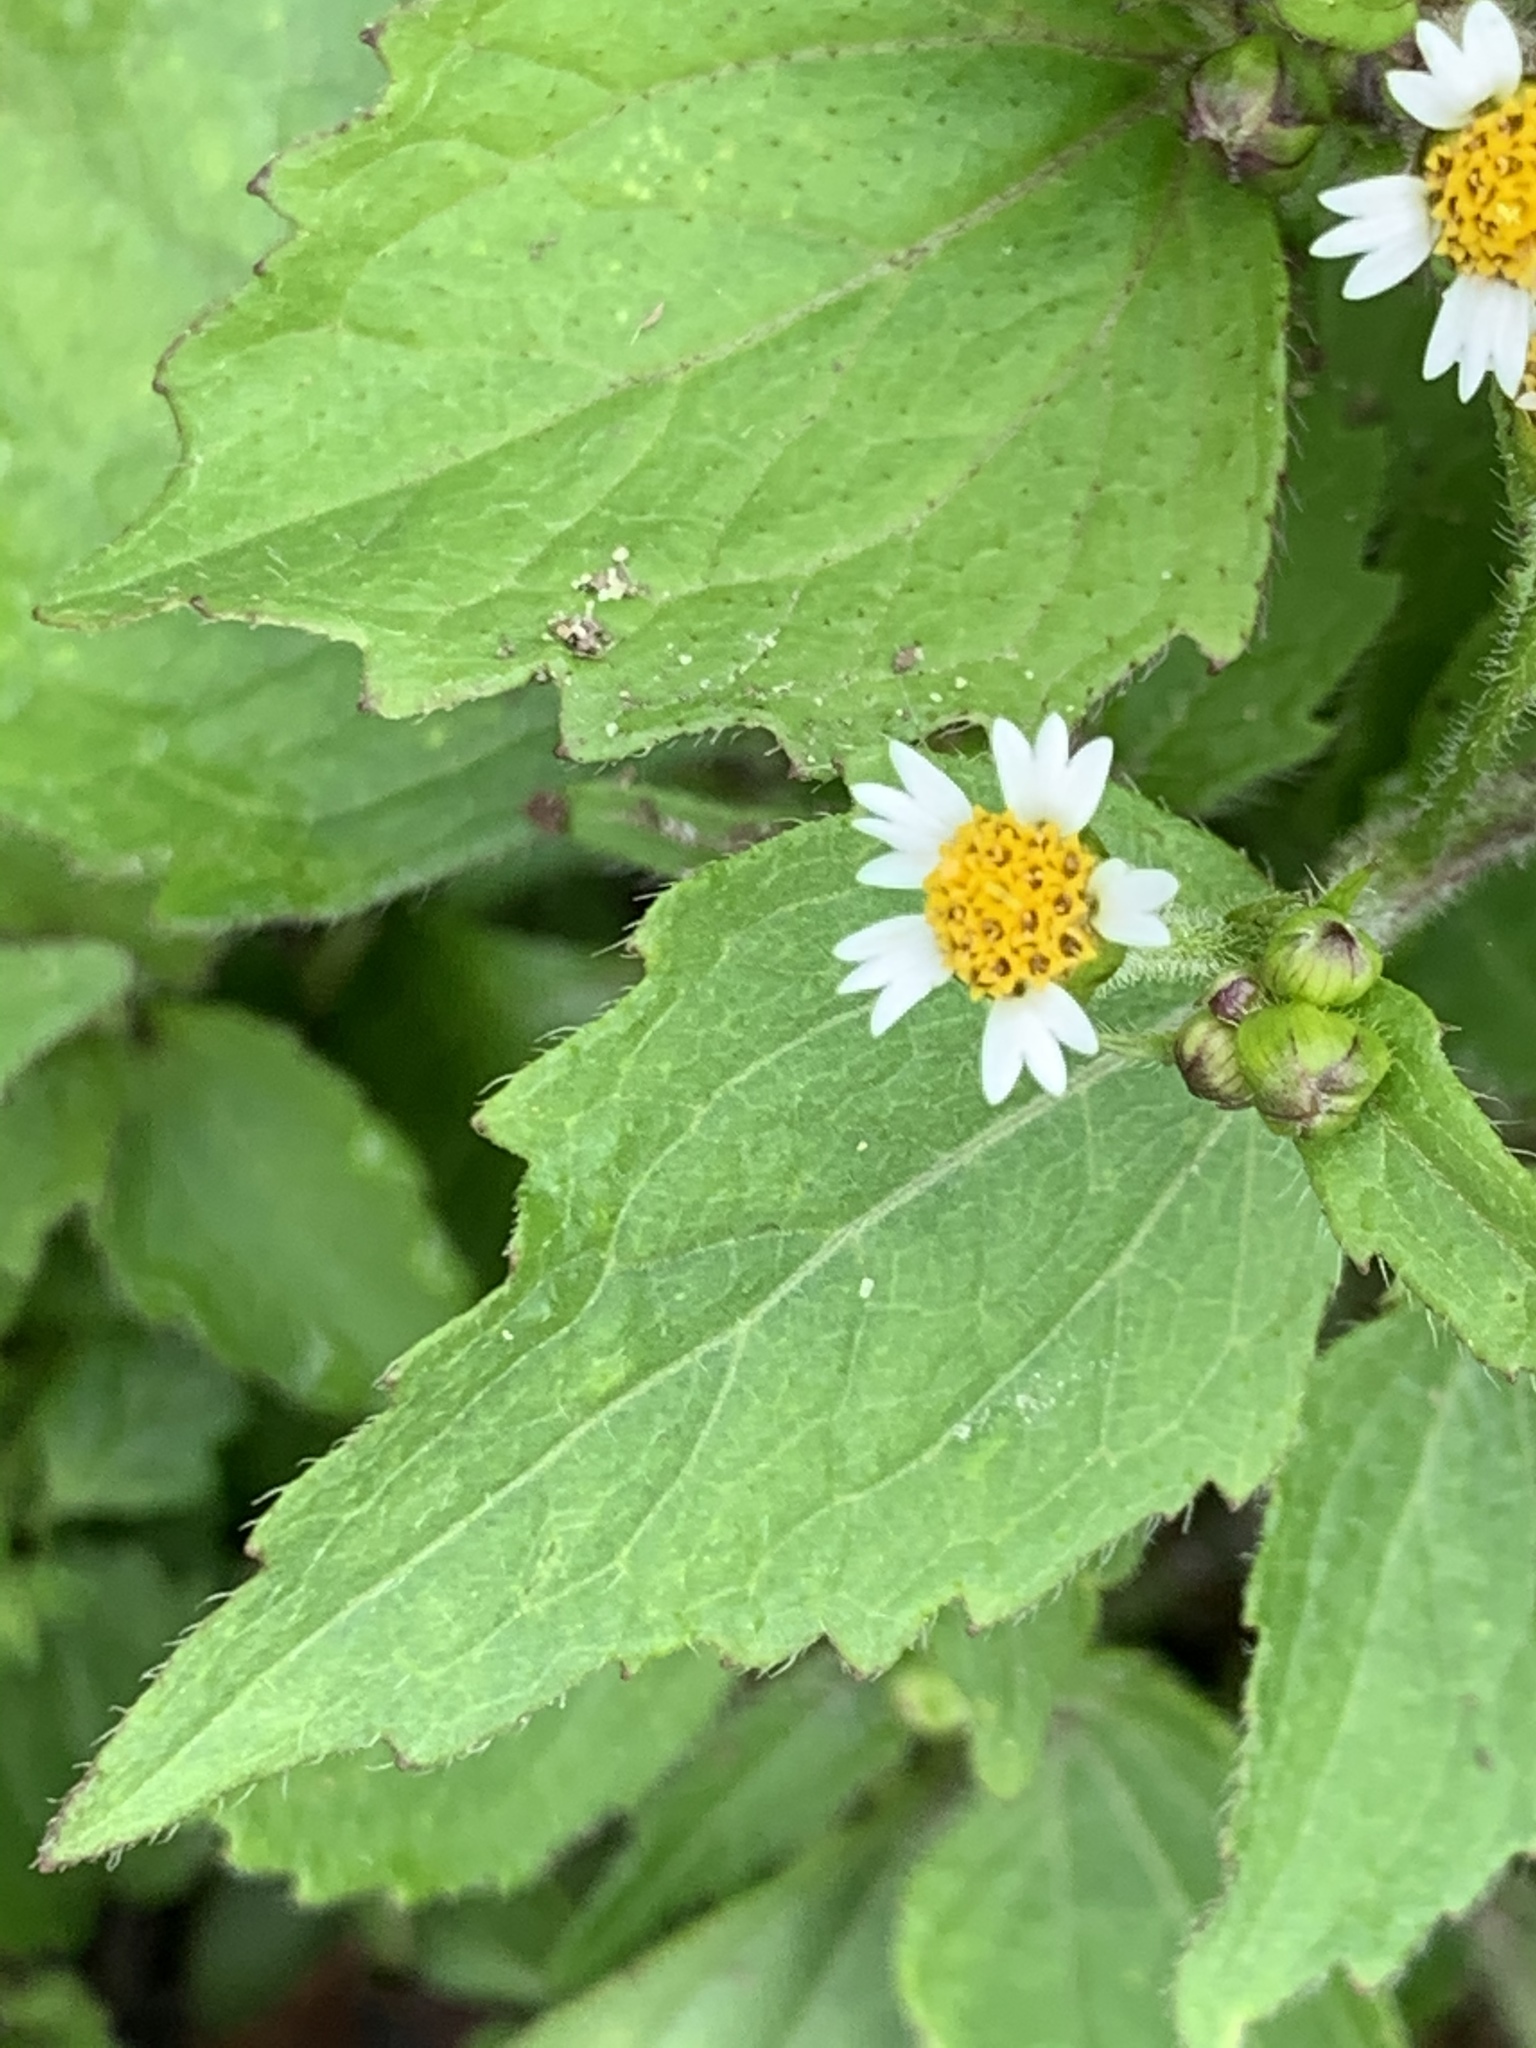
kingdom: Plantae
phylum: Tracheophyta
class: Magnoliopsida
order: Asterales
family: Asteraceae
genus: Galinsoga
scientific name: Galinsoga quadriradiata
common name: Shaggy soldier
